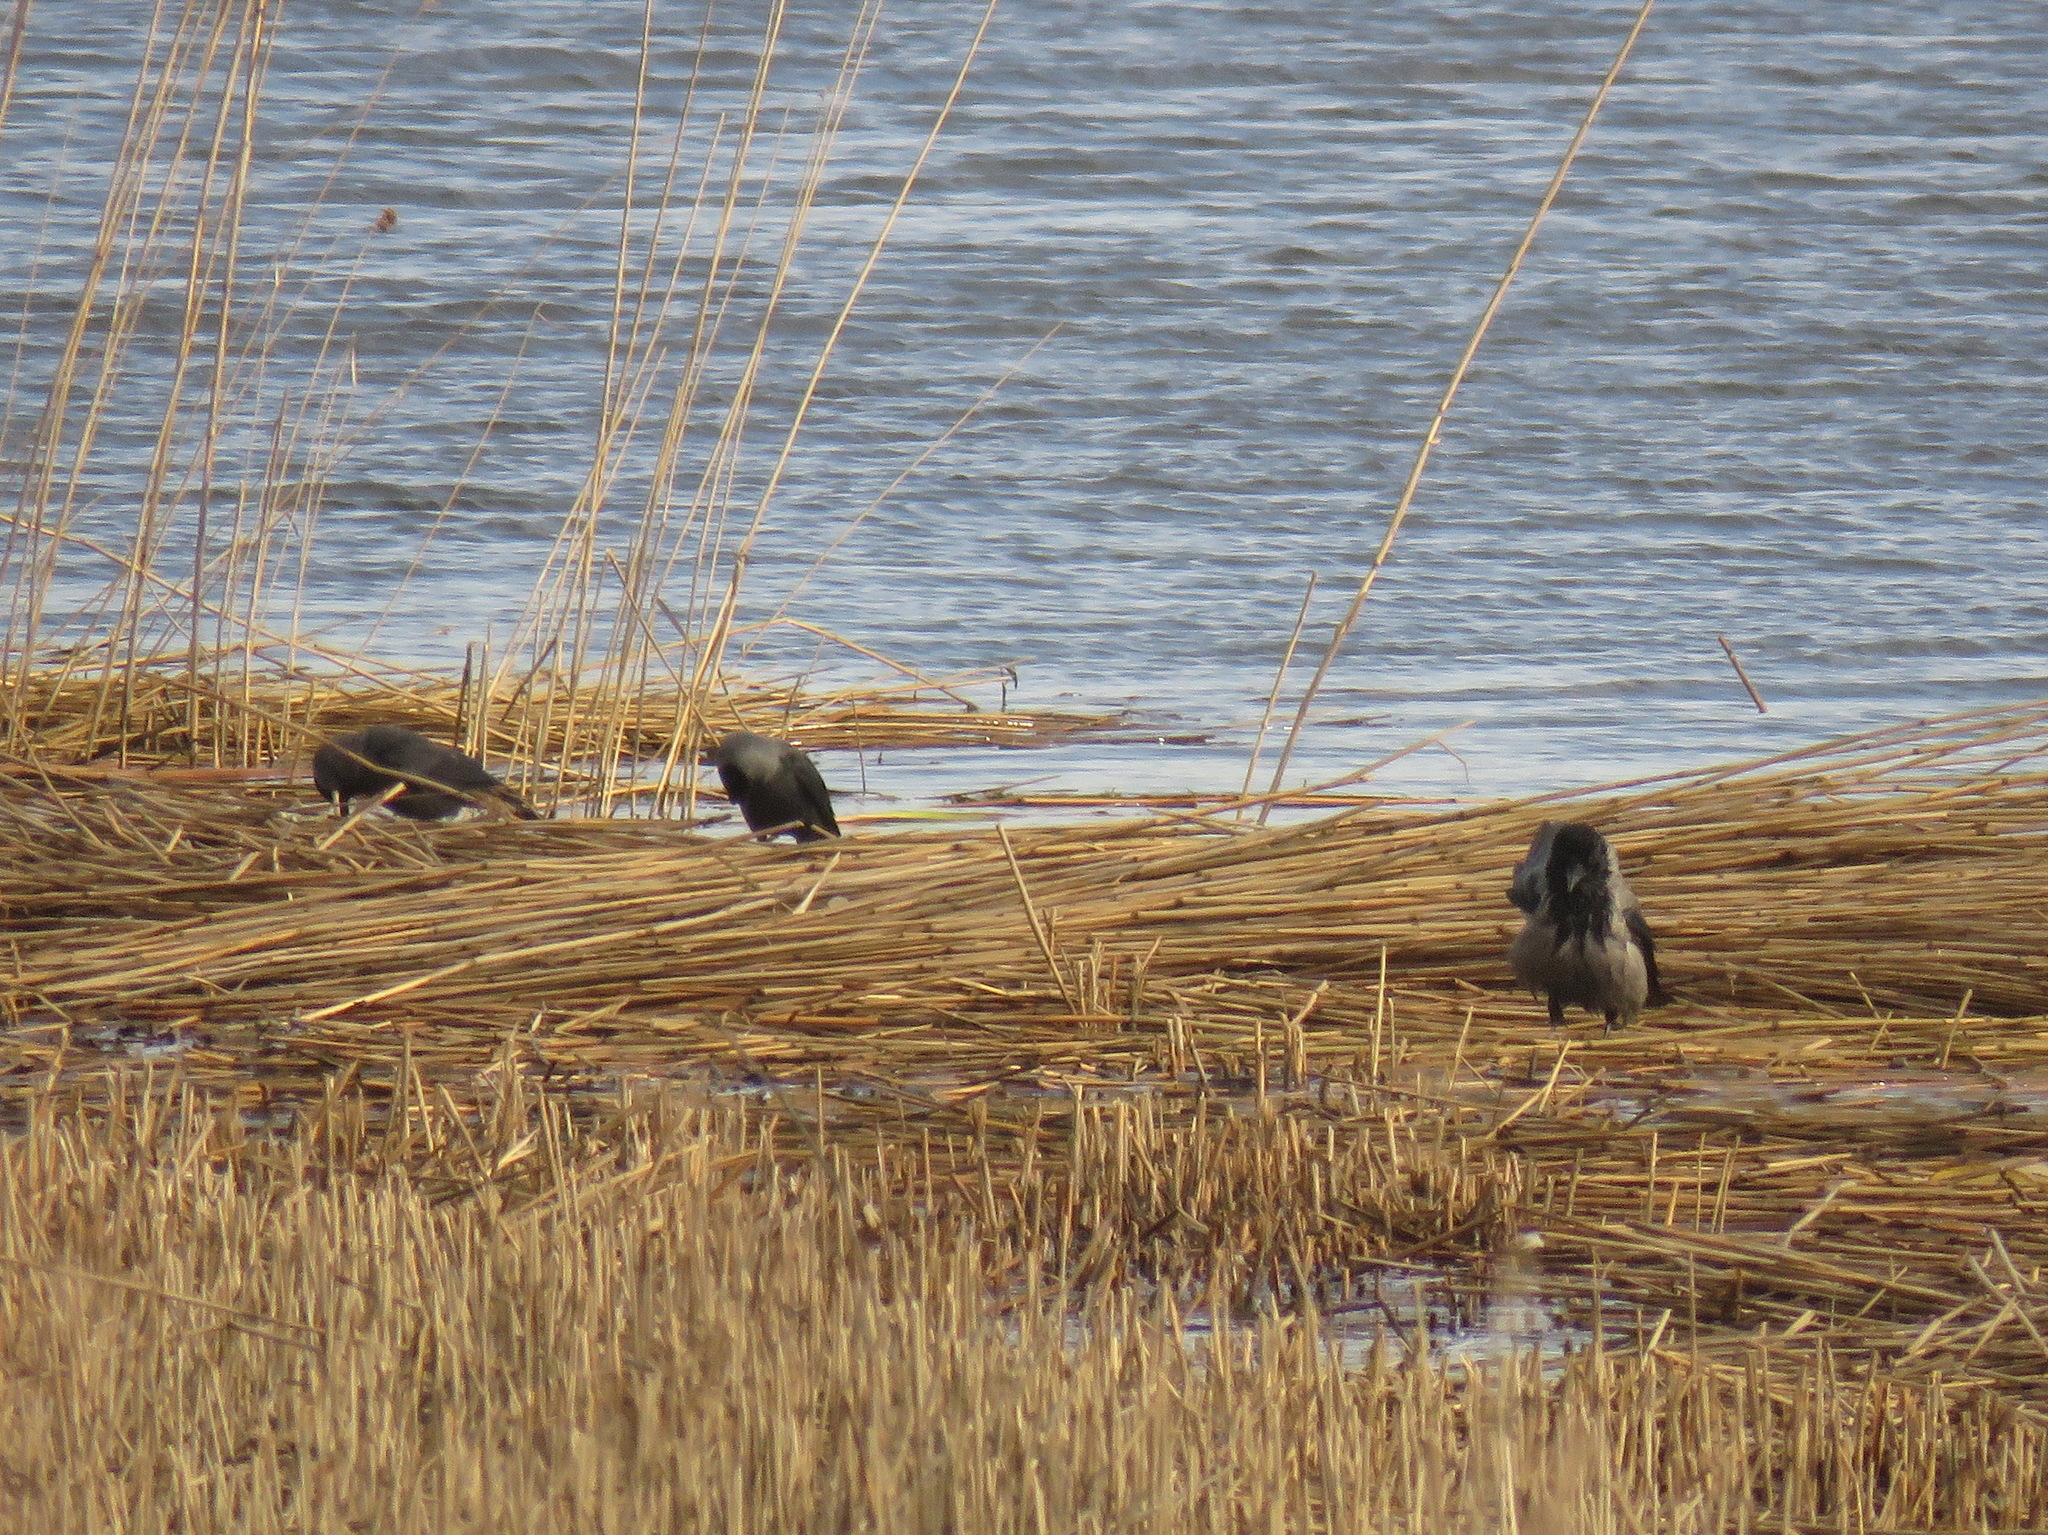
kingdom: Animalia
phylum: Chordata
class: Aves
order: Passeriformes
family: Corvidae
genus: Coloeus
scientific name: Coloeus monedula
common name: Western jackdaw
